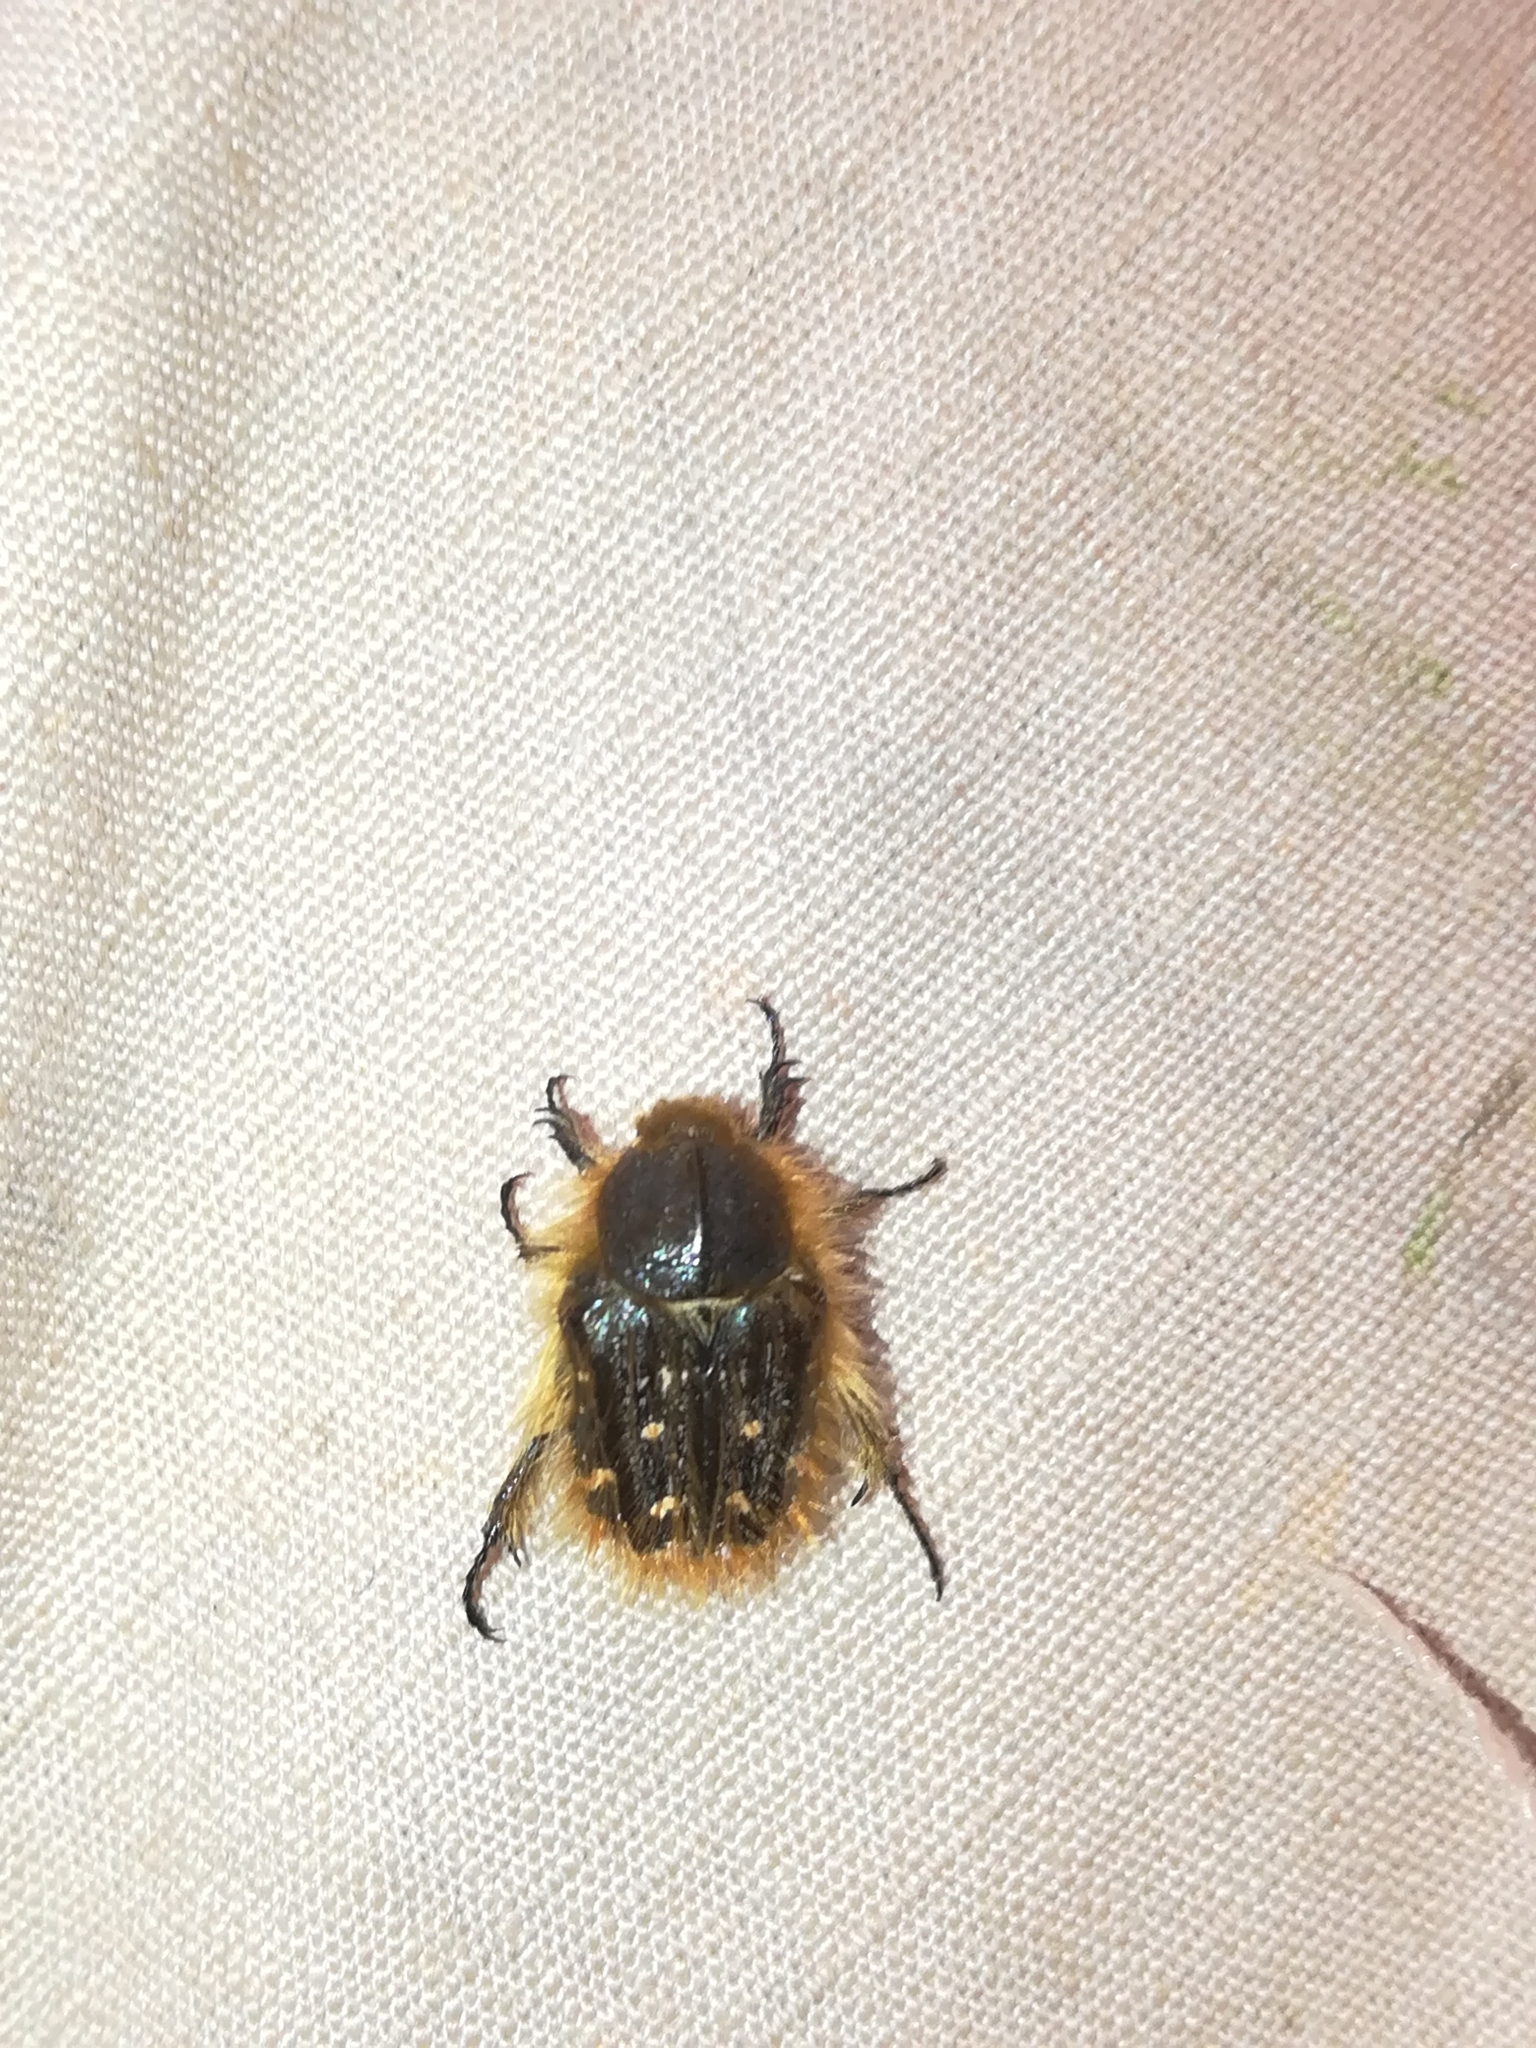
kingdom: Animalia
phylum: Arthropoda
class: Insecta
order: Coleoptera
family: Scarabaeidae
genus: Tropinota
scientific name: Tropinota squalida
